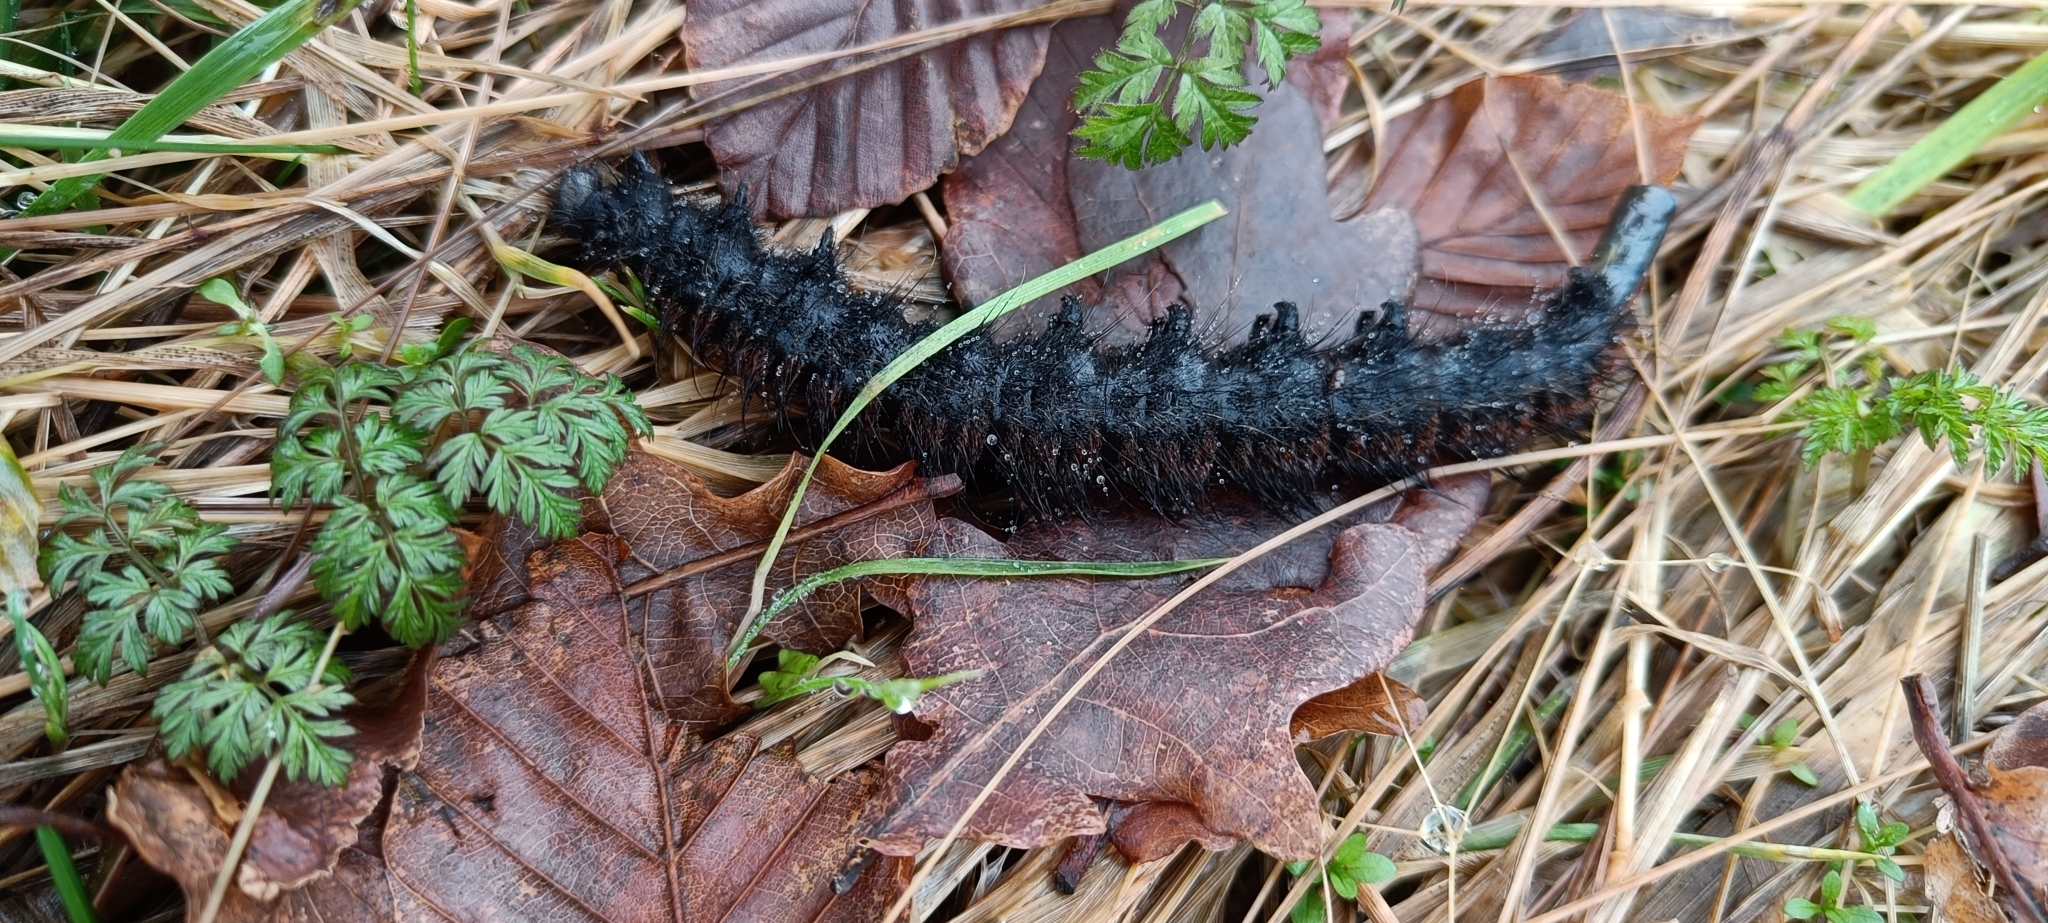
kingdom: Animalia
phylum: Arthropoda
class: Insecta
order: Lepidoptera
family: Lasiocampidae
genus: Macrothylacia
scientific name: Macrothylacia rubi
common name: Fox moth
